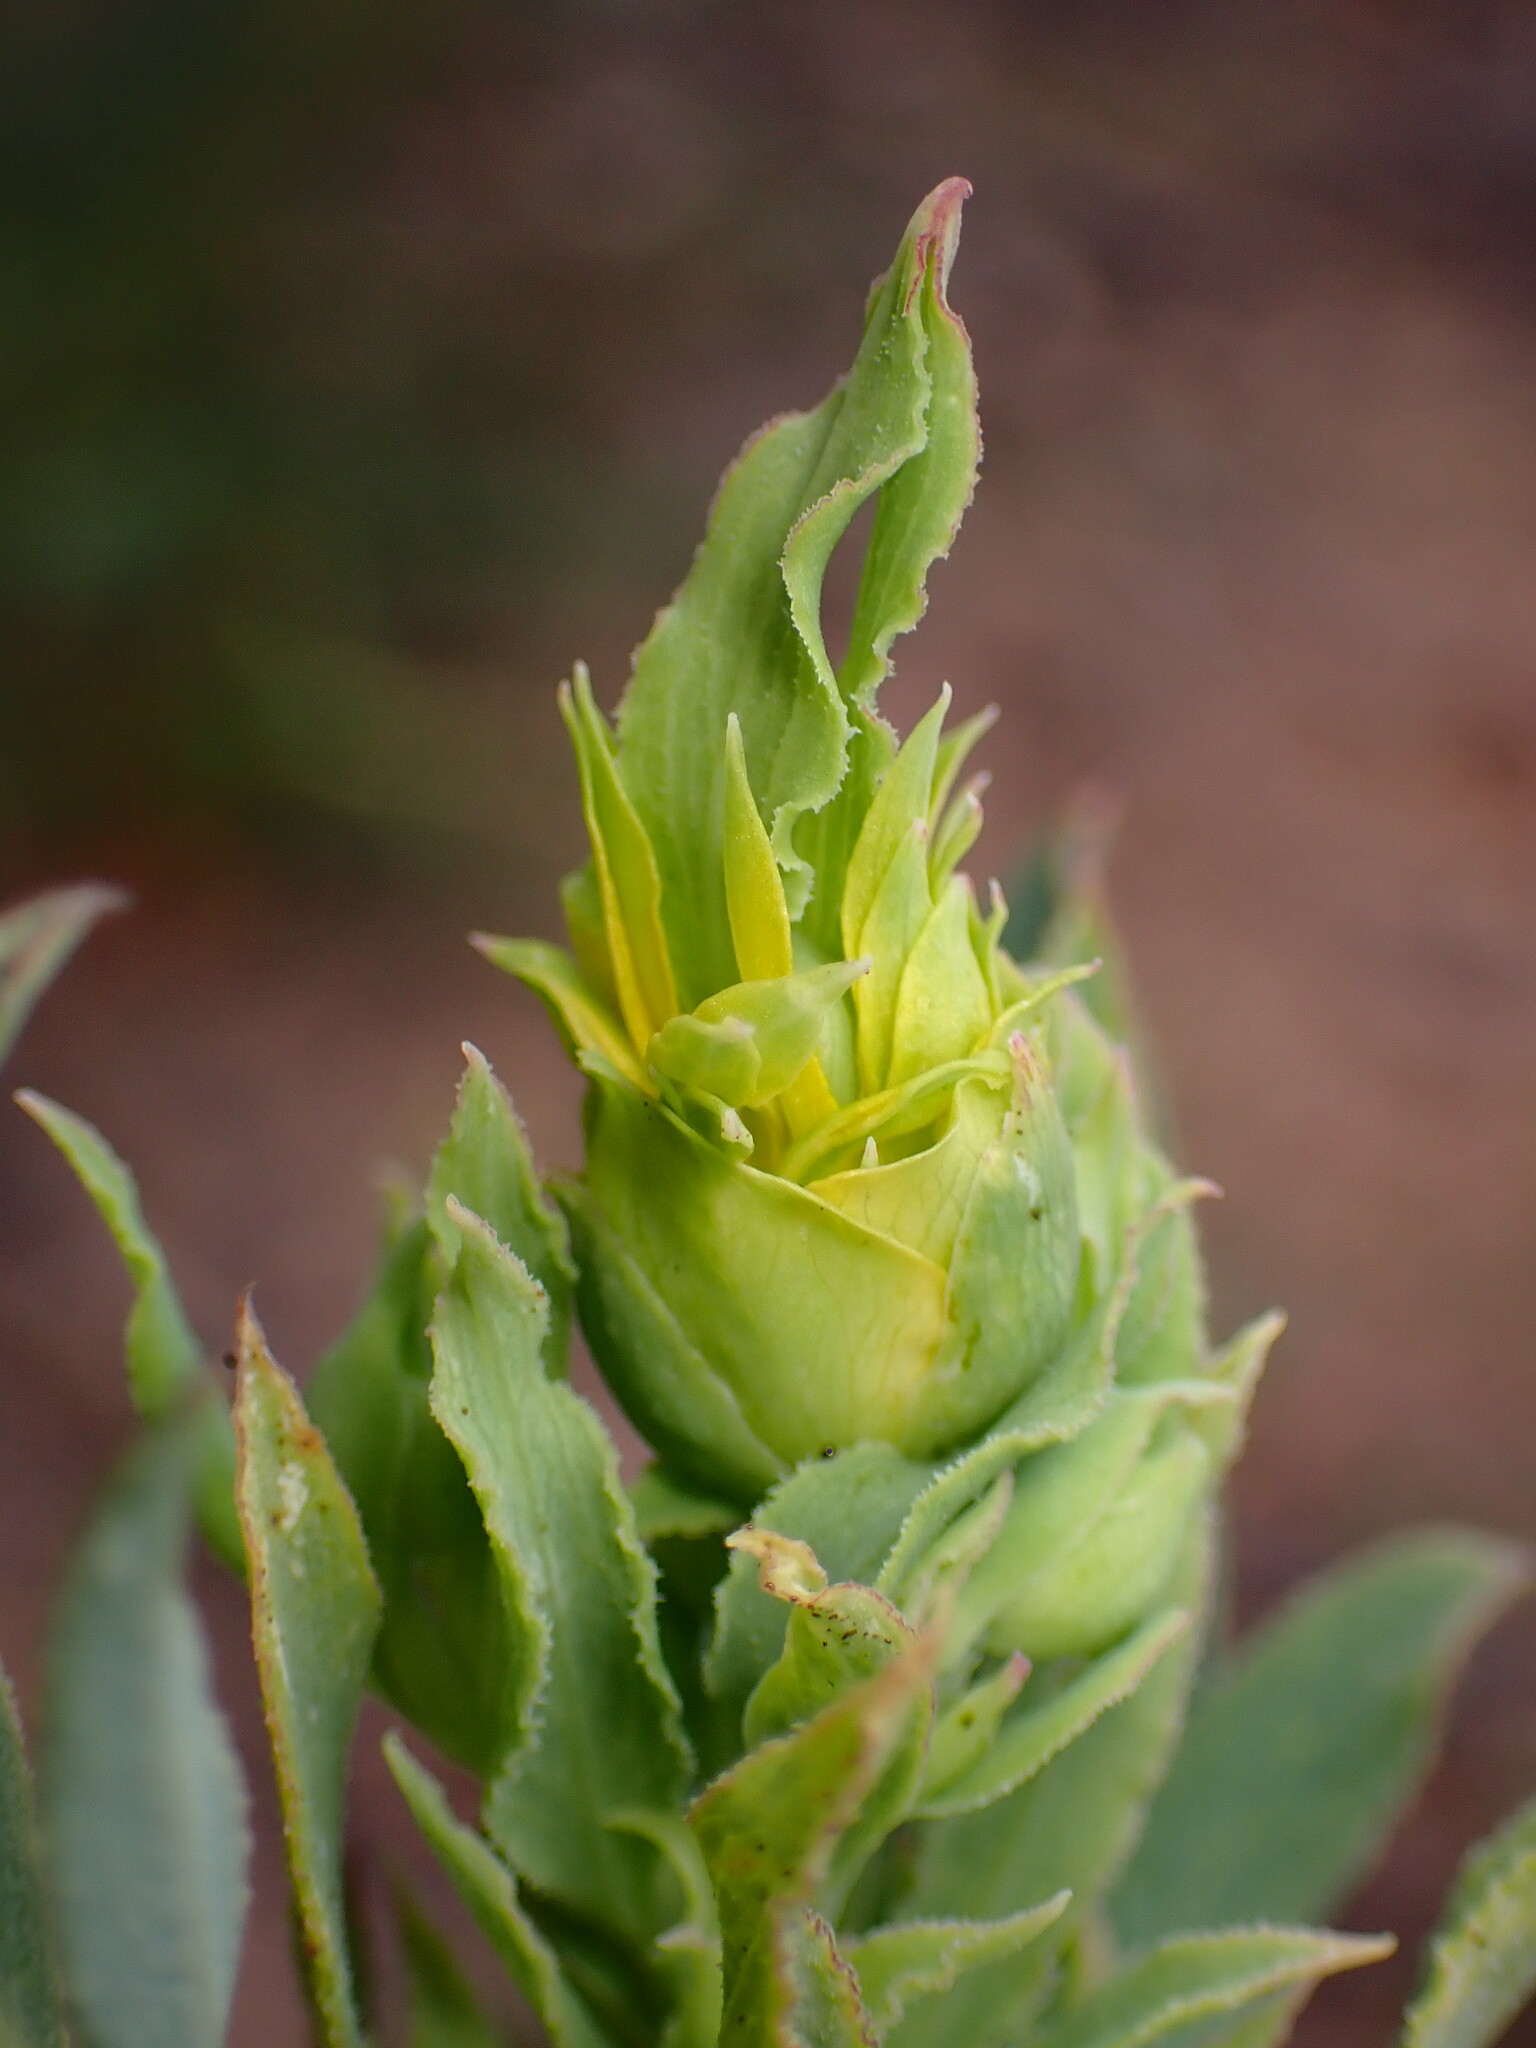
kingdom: Plantae
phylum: Tracheophyta
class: Magnoliopsida
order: Ranunculales
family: Papaveraceae
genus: Dendromecon
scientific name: Dendromecon rigida
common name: Tree poppy
